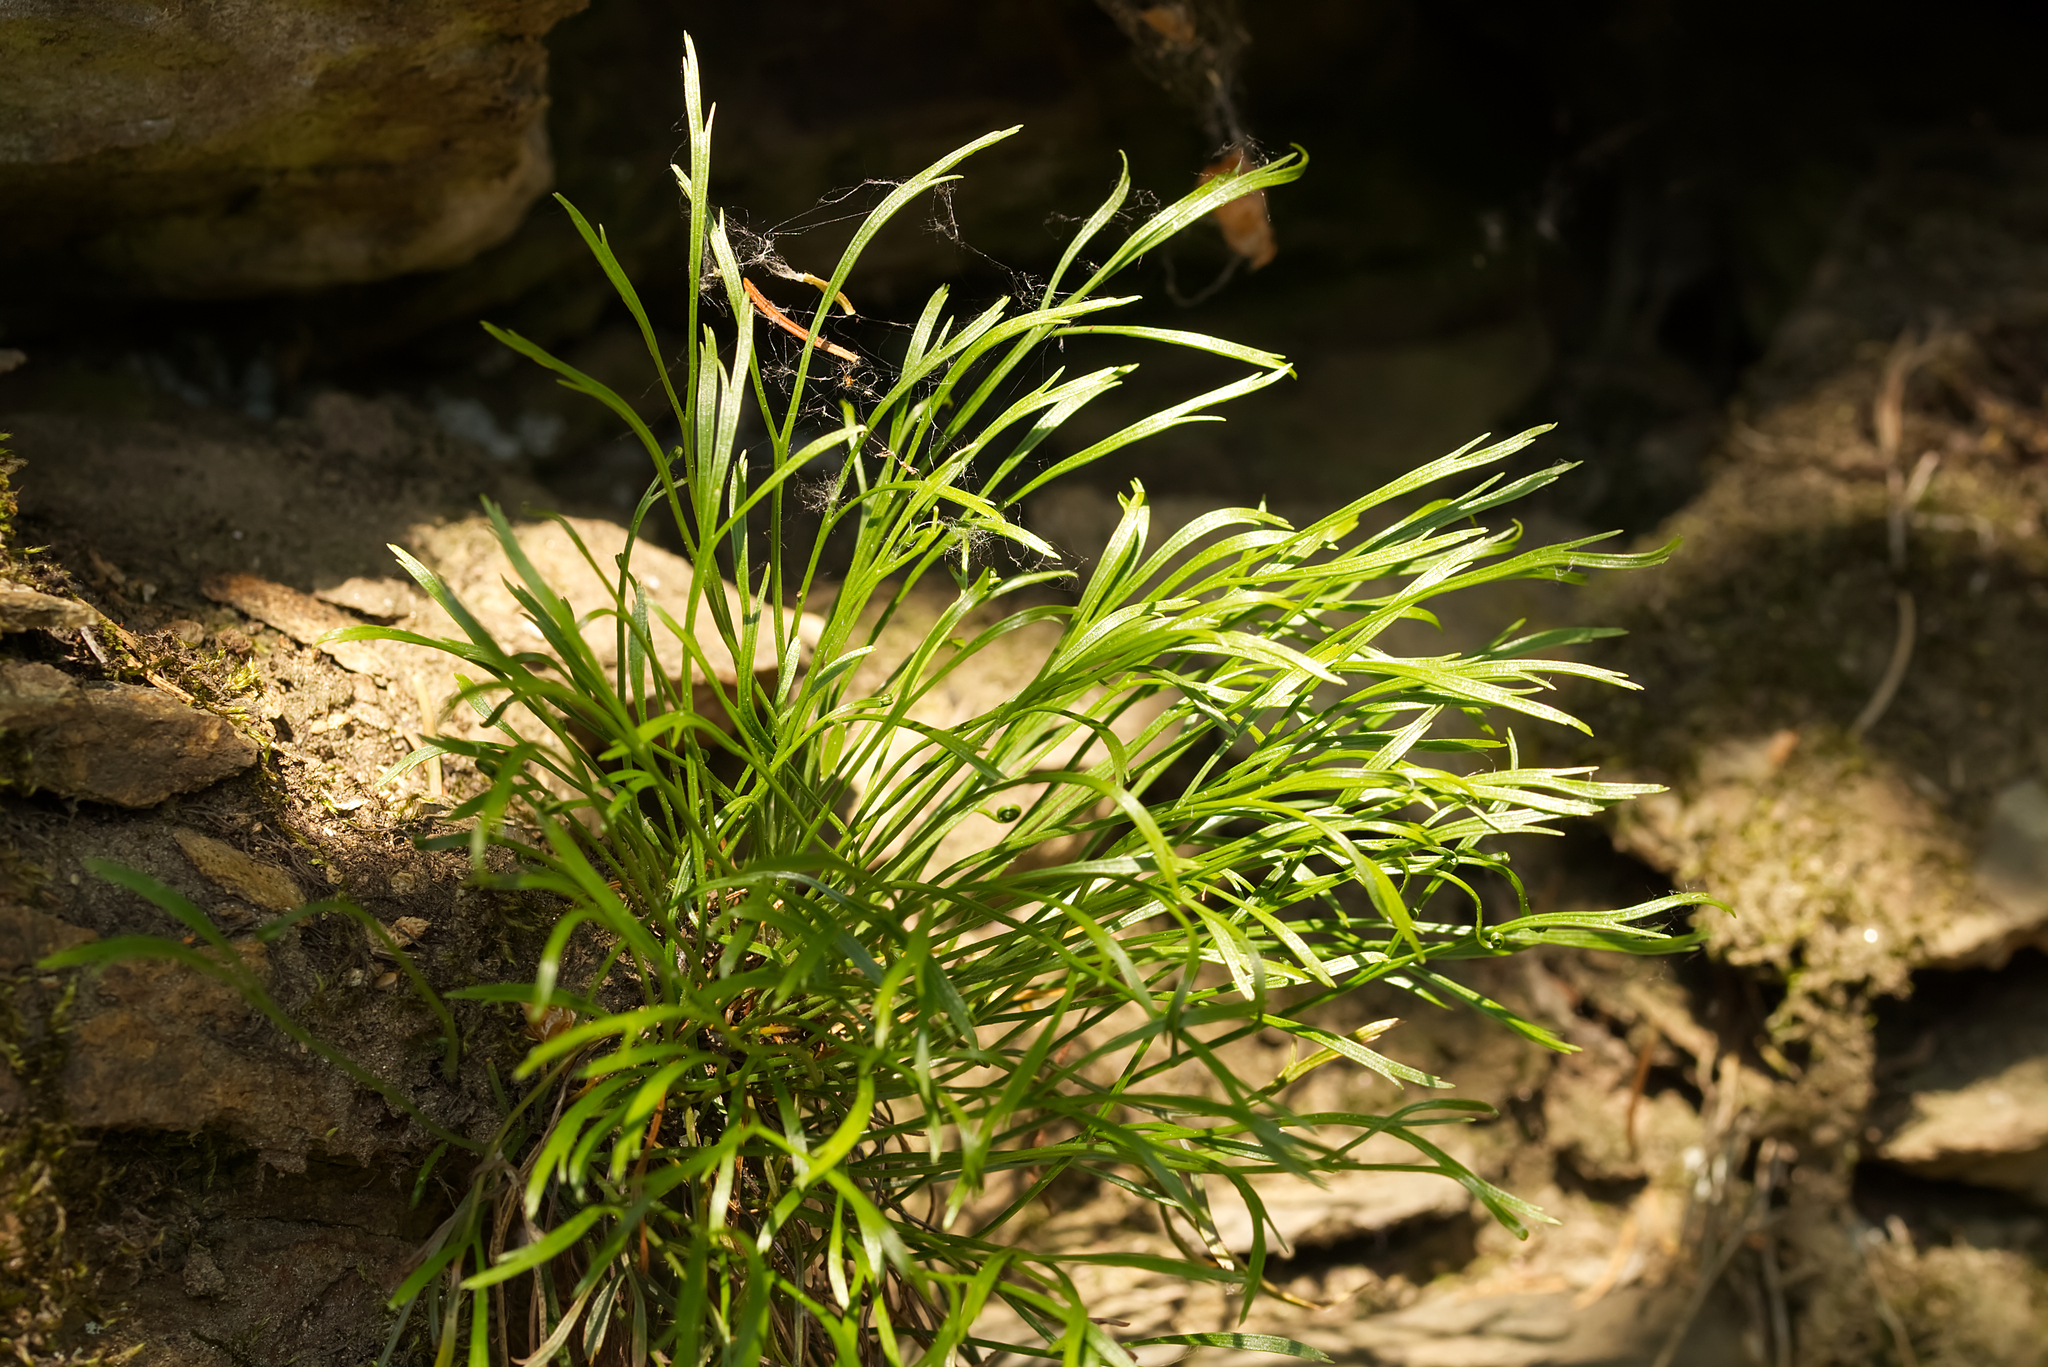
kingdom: Plantae
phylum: Tracheophyta
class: Polypodiopsida
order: Polypodiales
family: Aspleniaceae
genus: Asplenium
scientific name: Asplenium septentrionale
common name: Forked spleenwort
